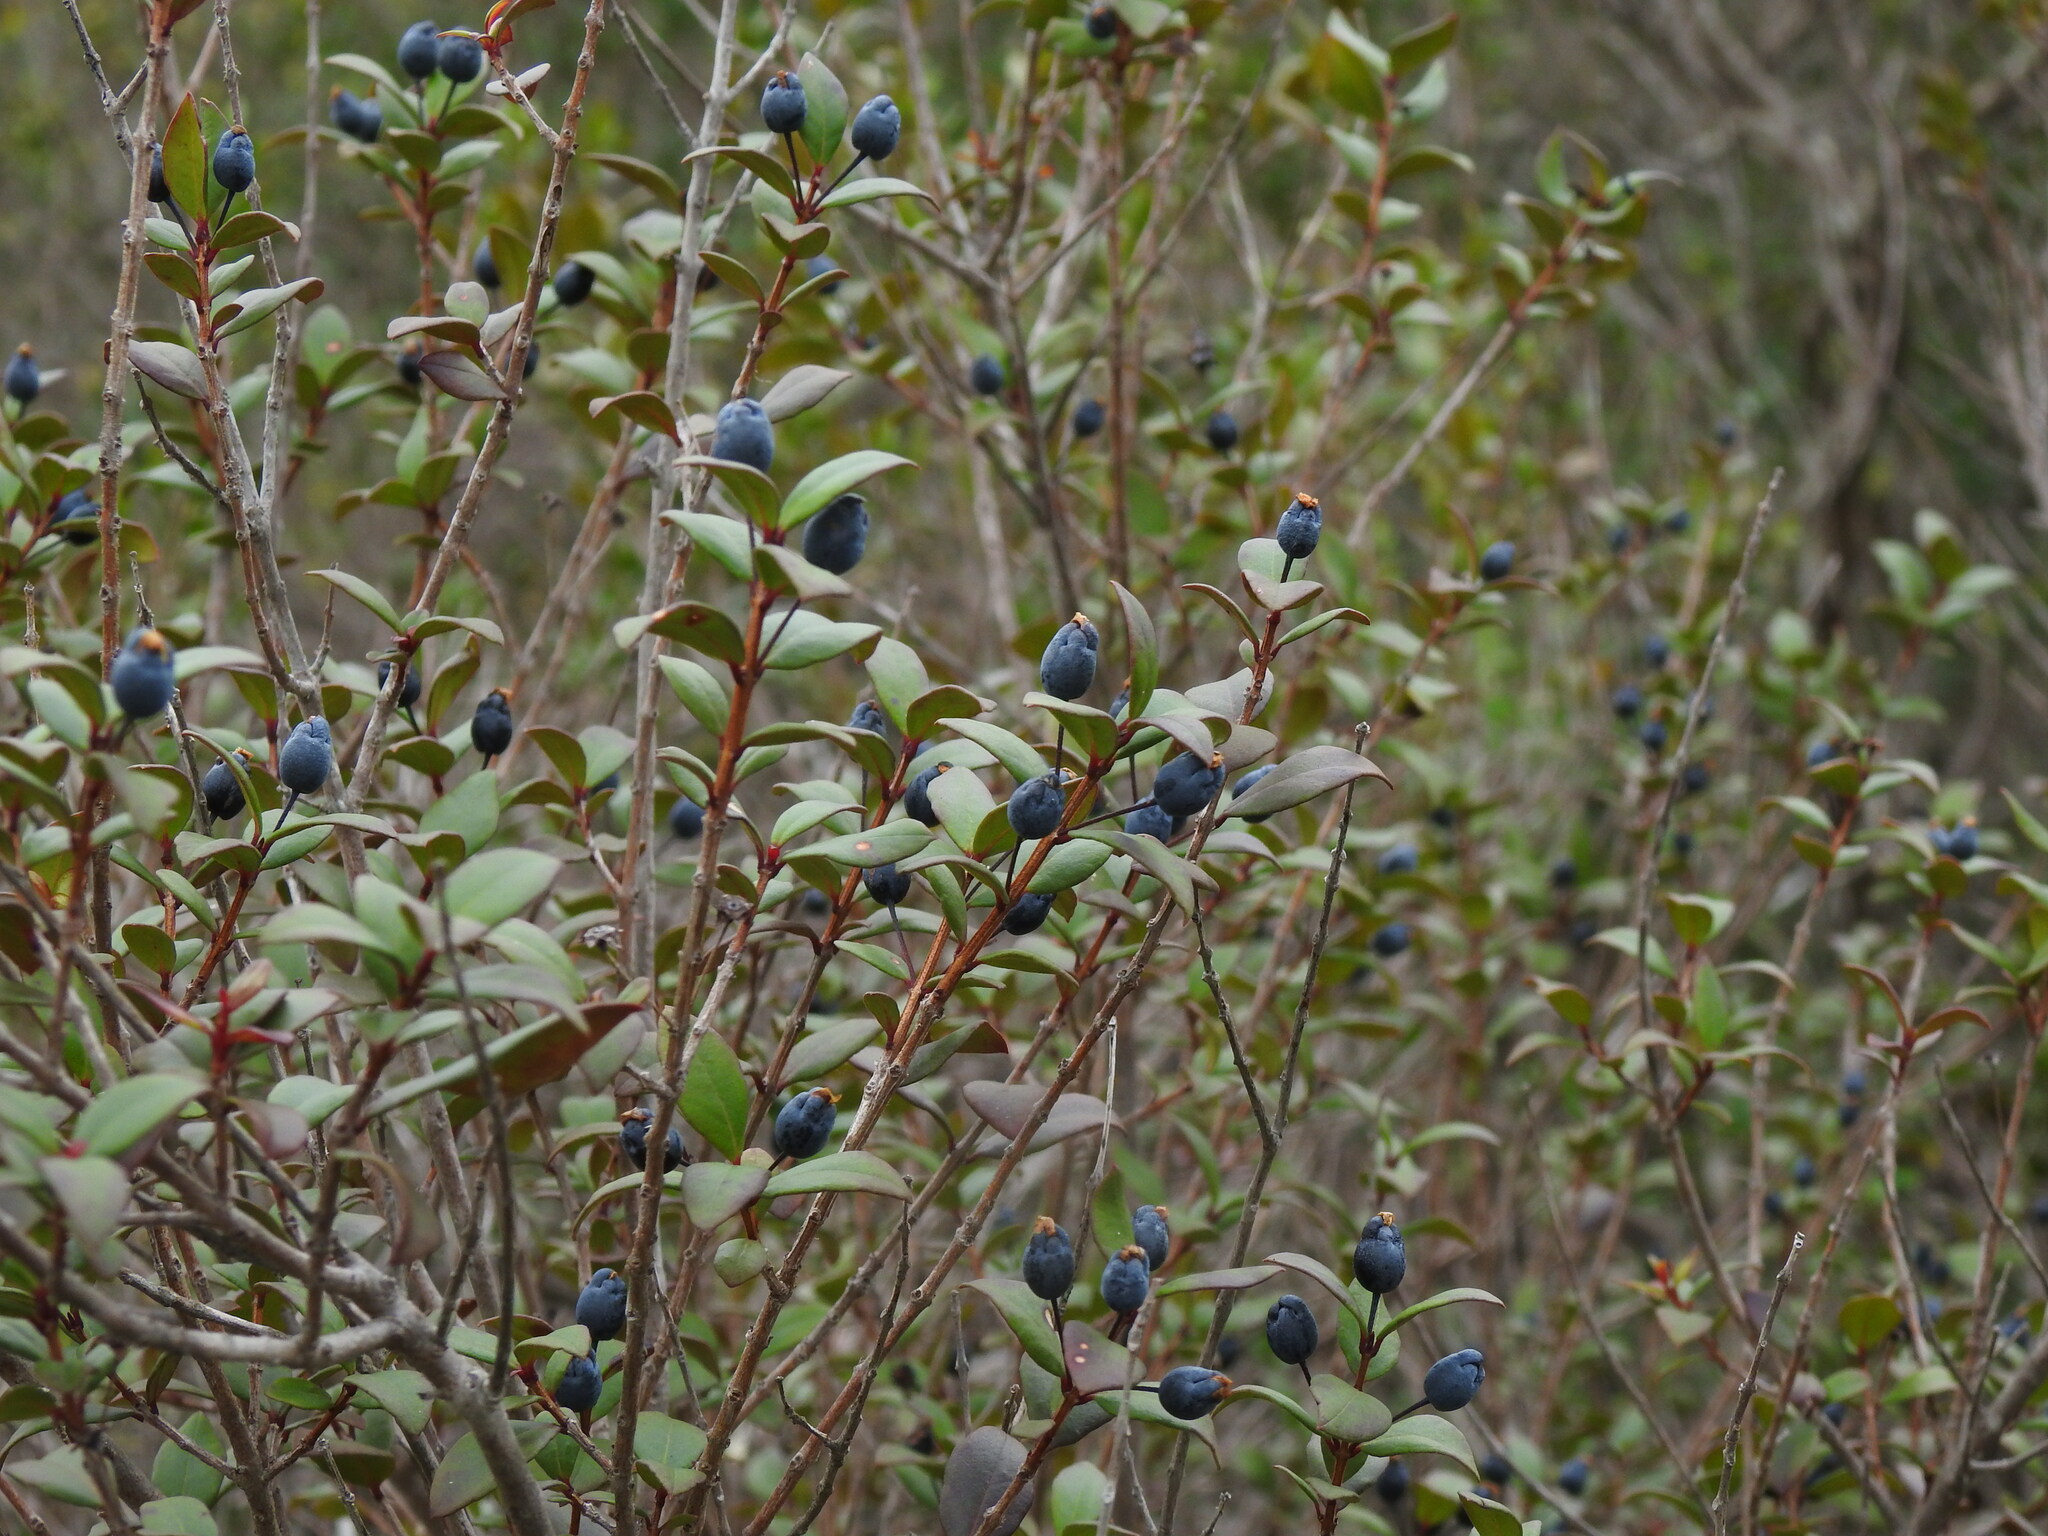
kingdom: Plantae
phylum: Tracheophyta
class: Magnoliopsida
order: Myrtales
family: Myrtaceae
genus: Myrtus
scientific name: Myrtus communis
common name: Myrtle
